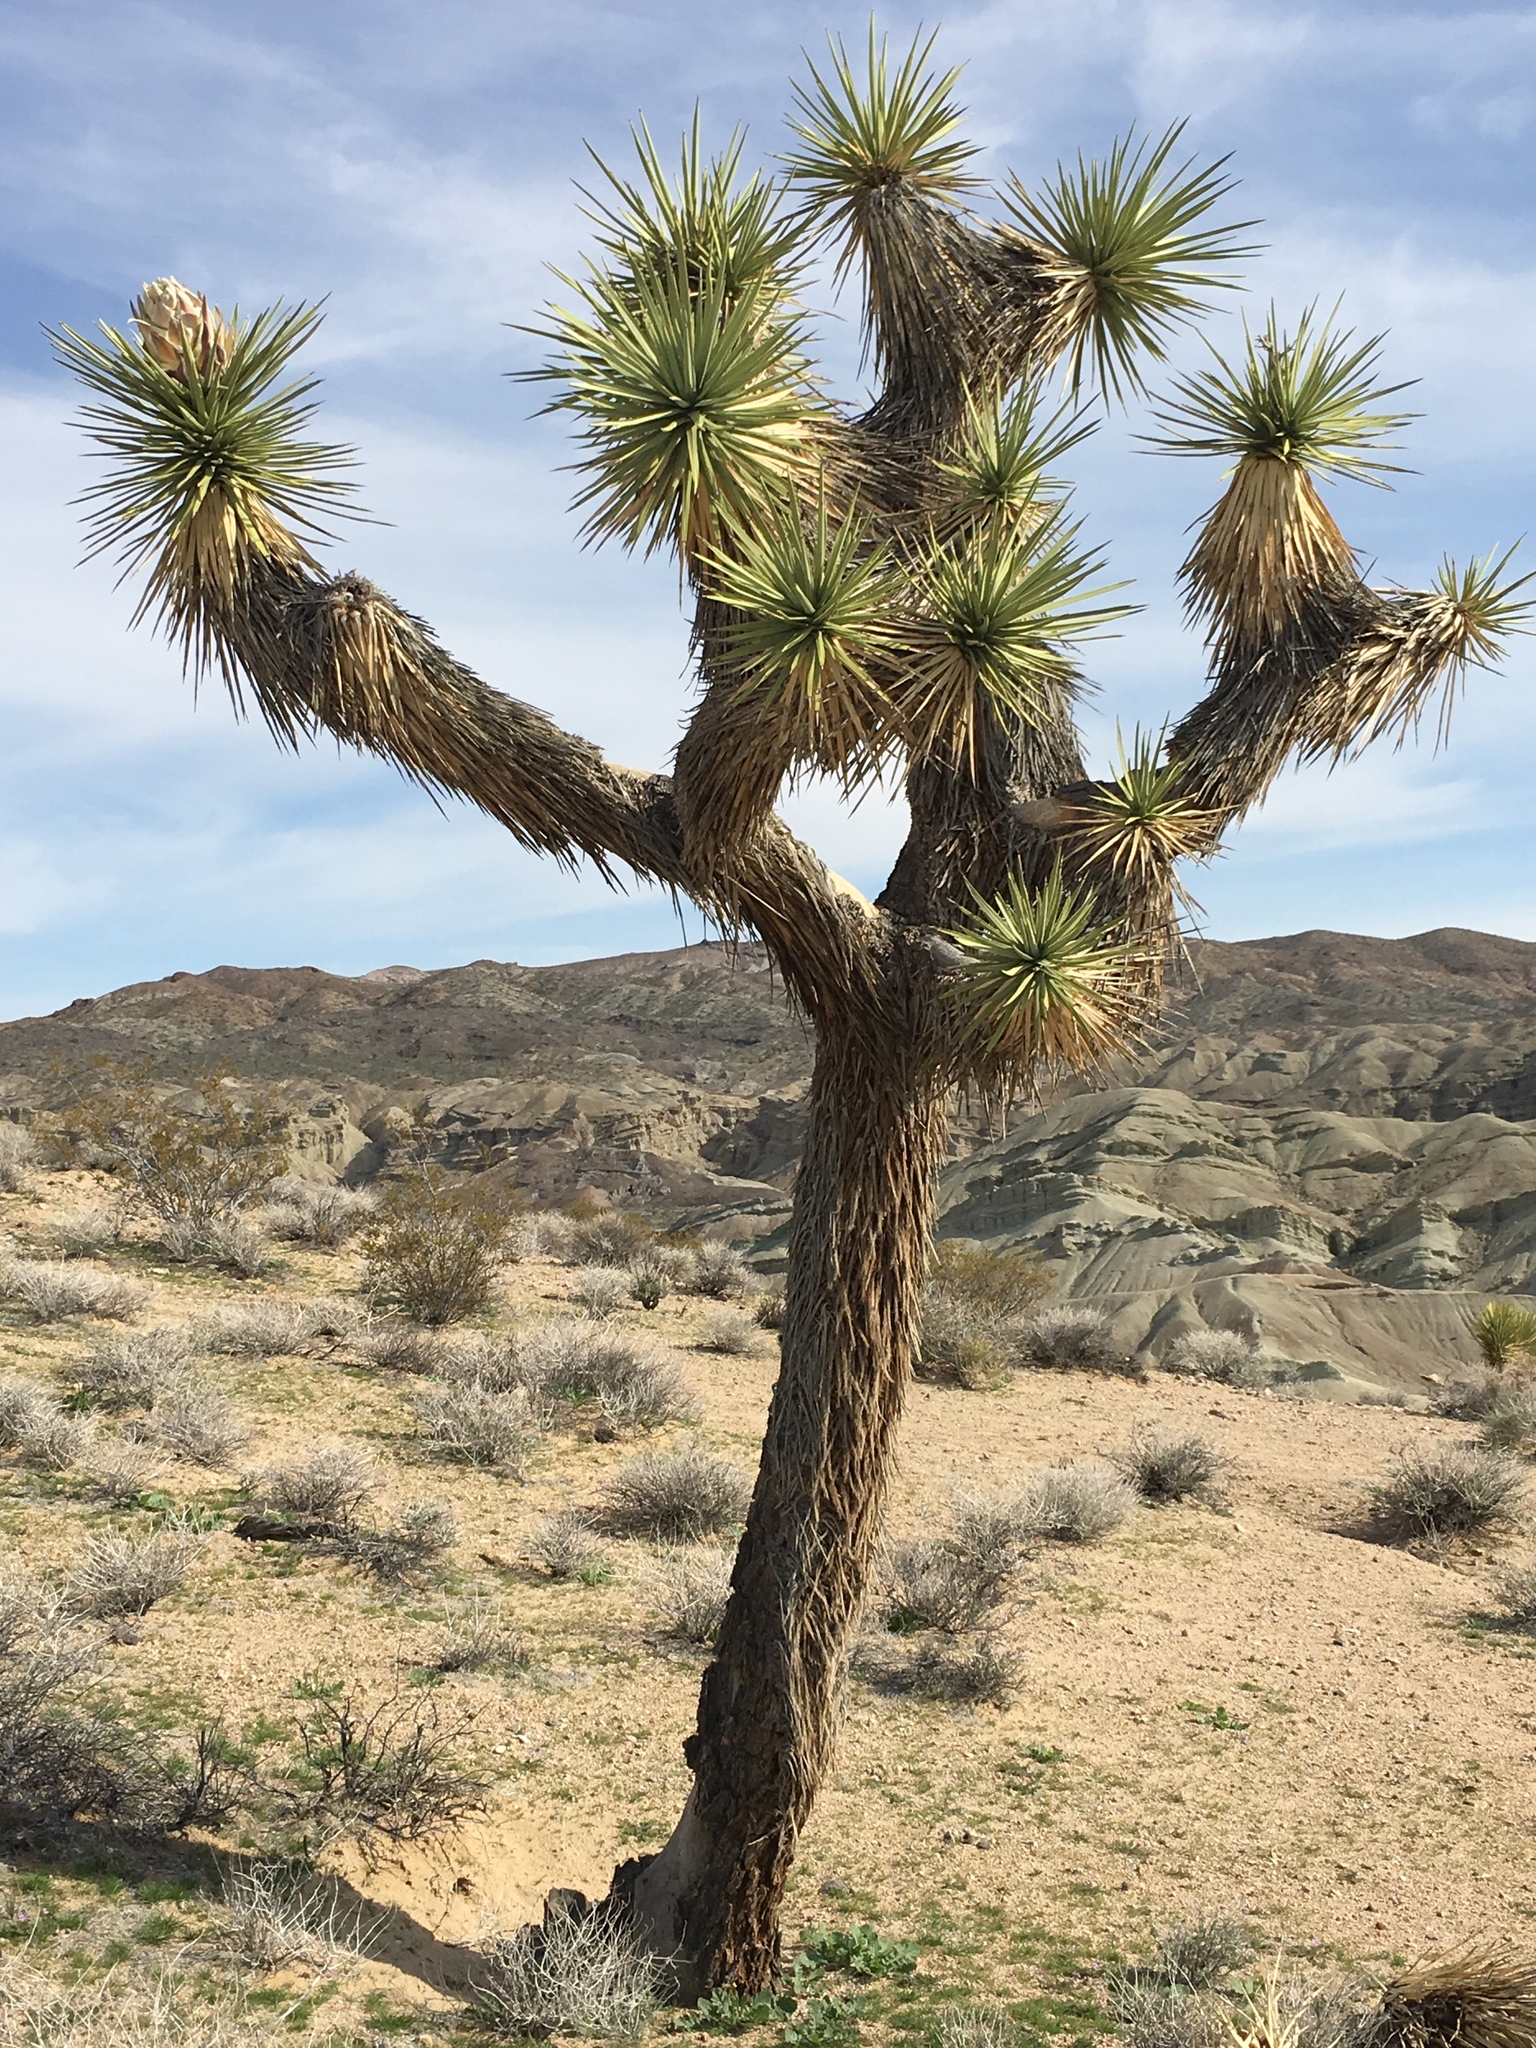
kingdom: Plantae
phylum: Tracheophyta
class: Liliopsida
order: Asparagales
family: Asparagaceae
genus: Yucca
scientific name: Yucca brevifolia
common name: Joshua tree
